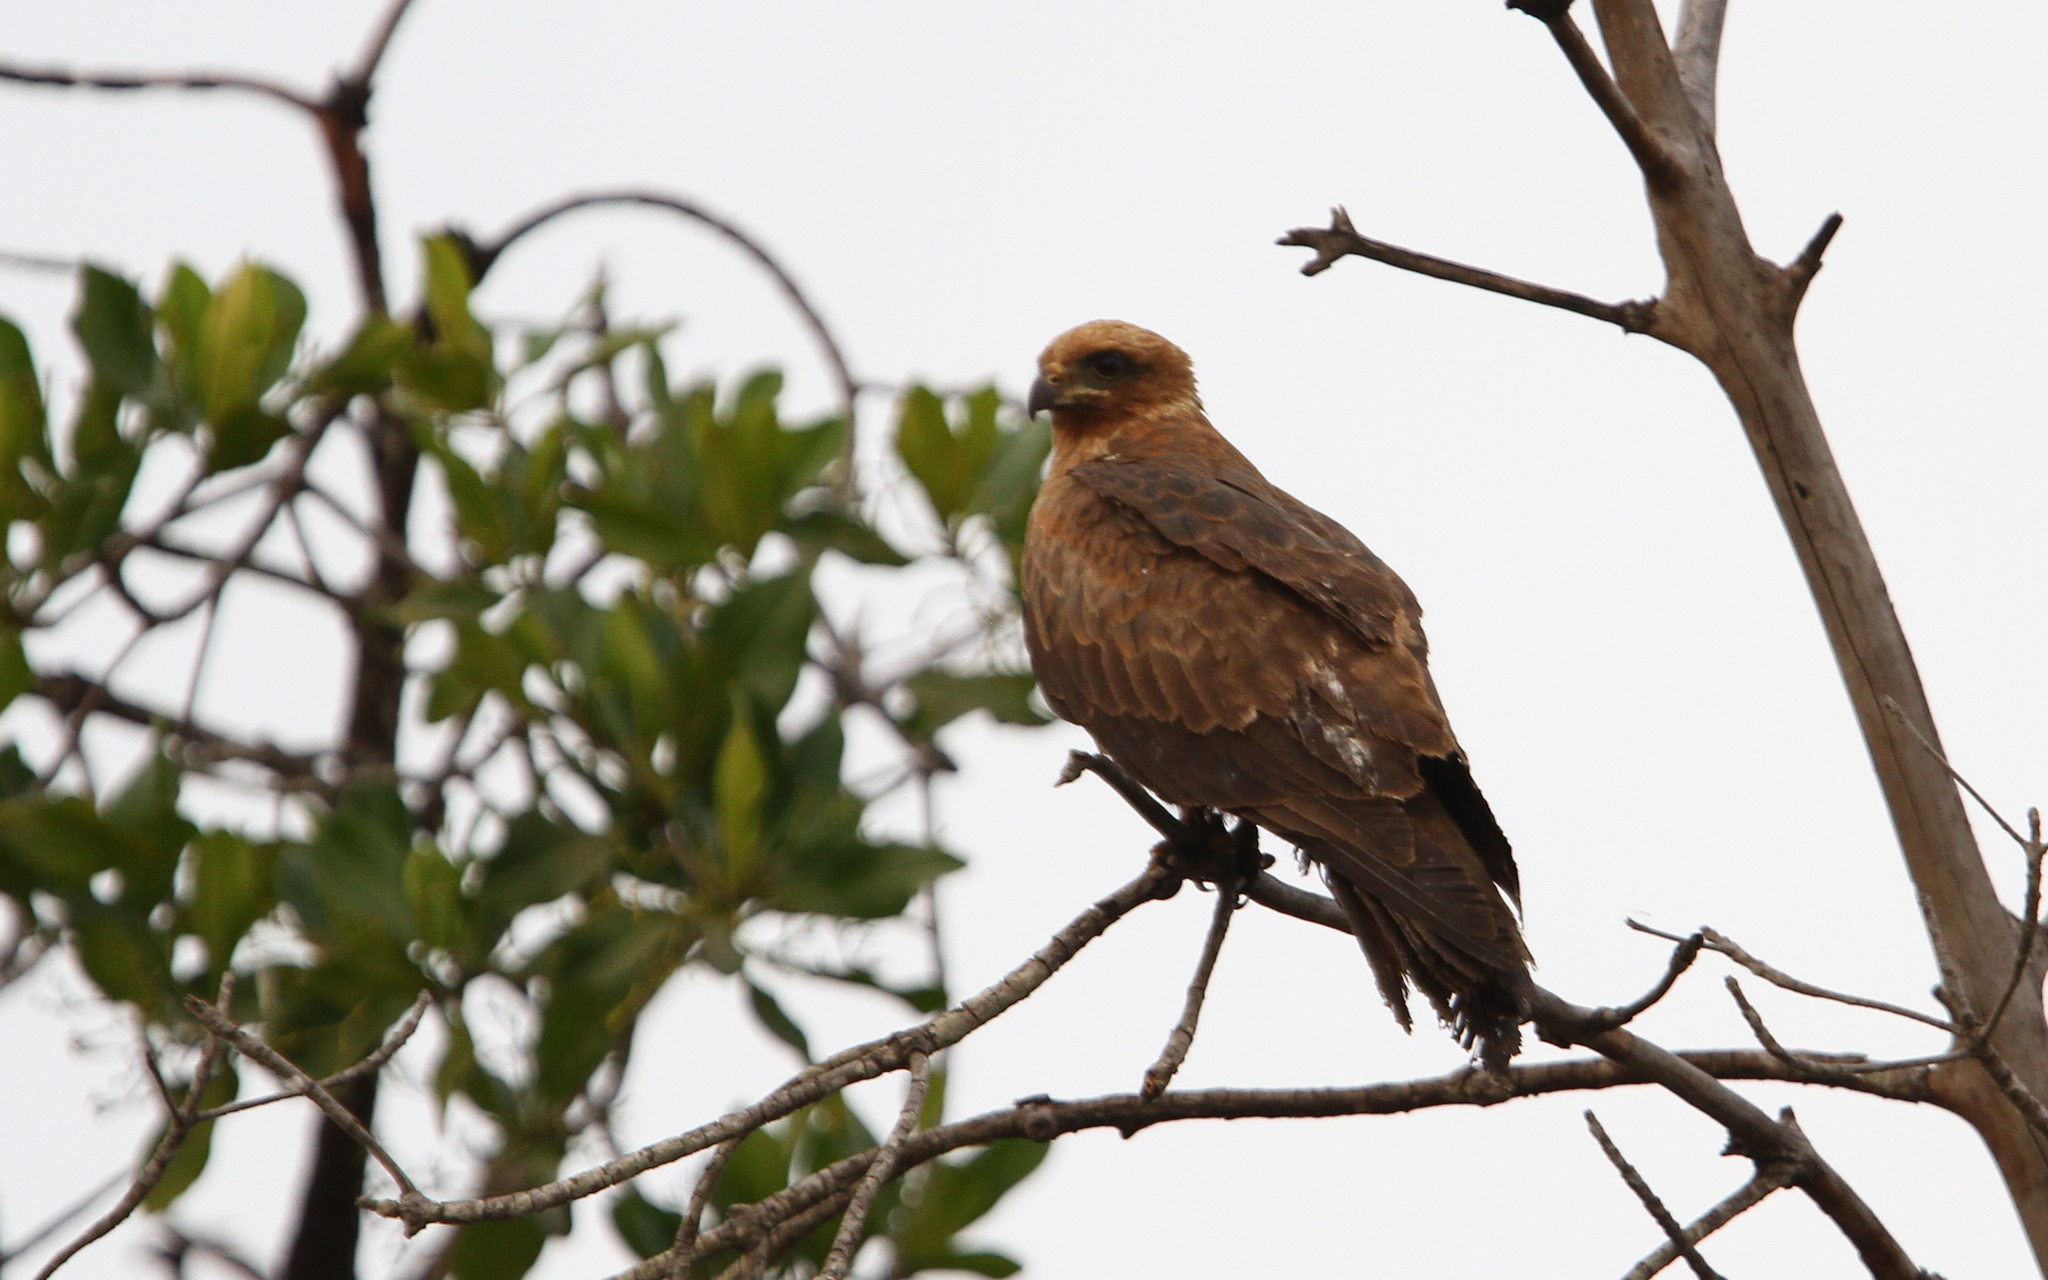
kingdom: Animalia
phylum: Chordata
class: Aves
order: Accipitriformes
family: Accipitridae
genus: Milvus
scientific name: Milvus migrans
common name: Black kite
